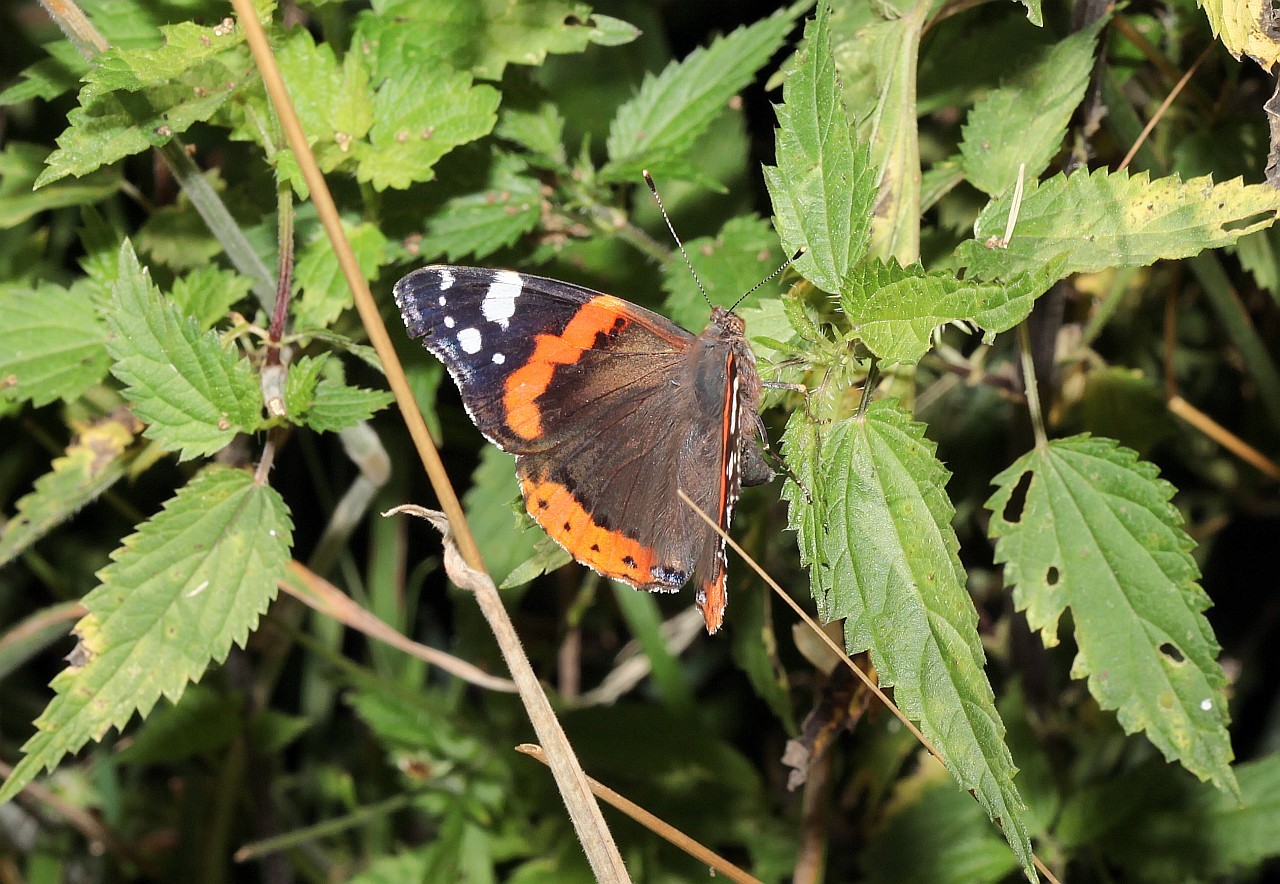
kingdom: Animalia
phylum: Arthropoda
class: Insecta
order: Lepidoptera
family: Nymphalidae
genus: Vanessa
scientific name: Vanessa atalanta
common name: Red admiral
